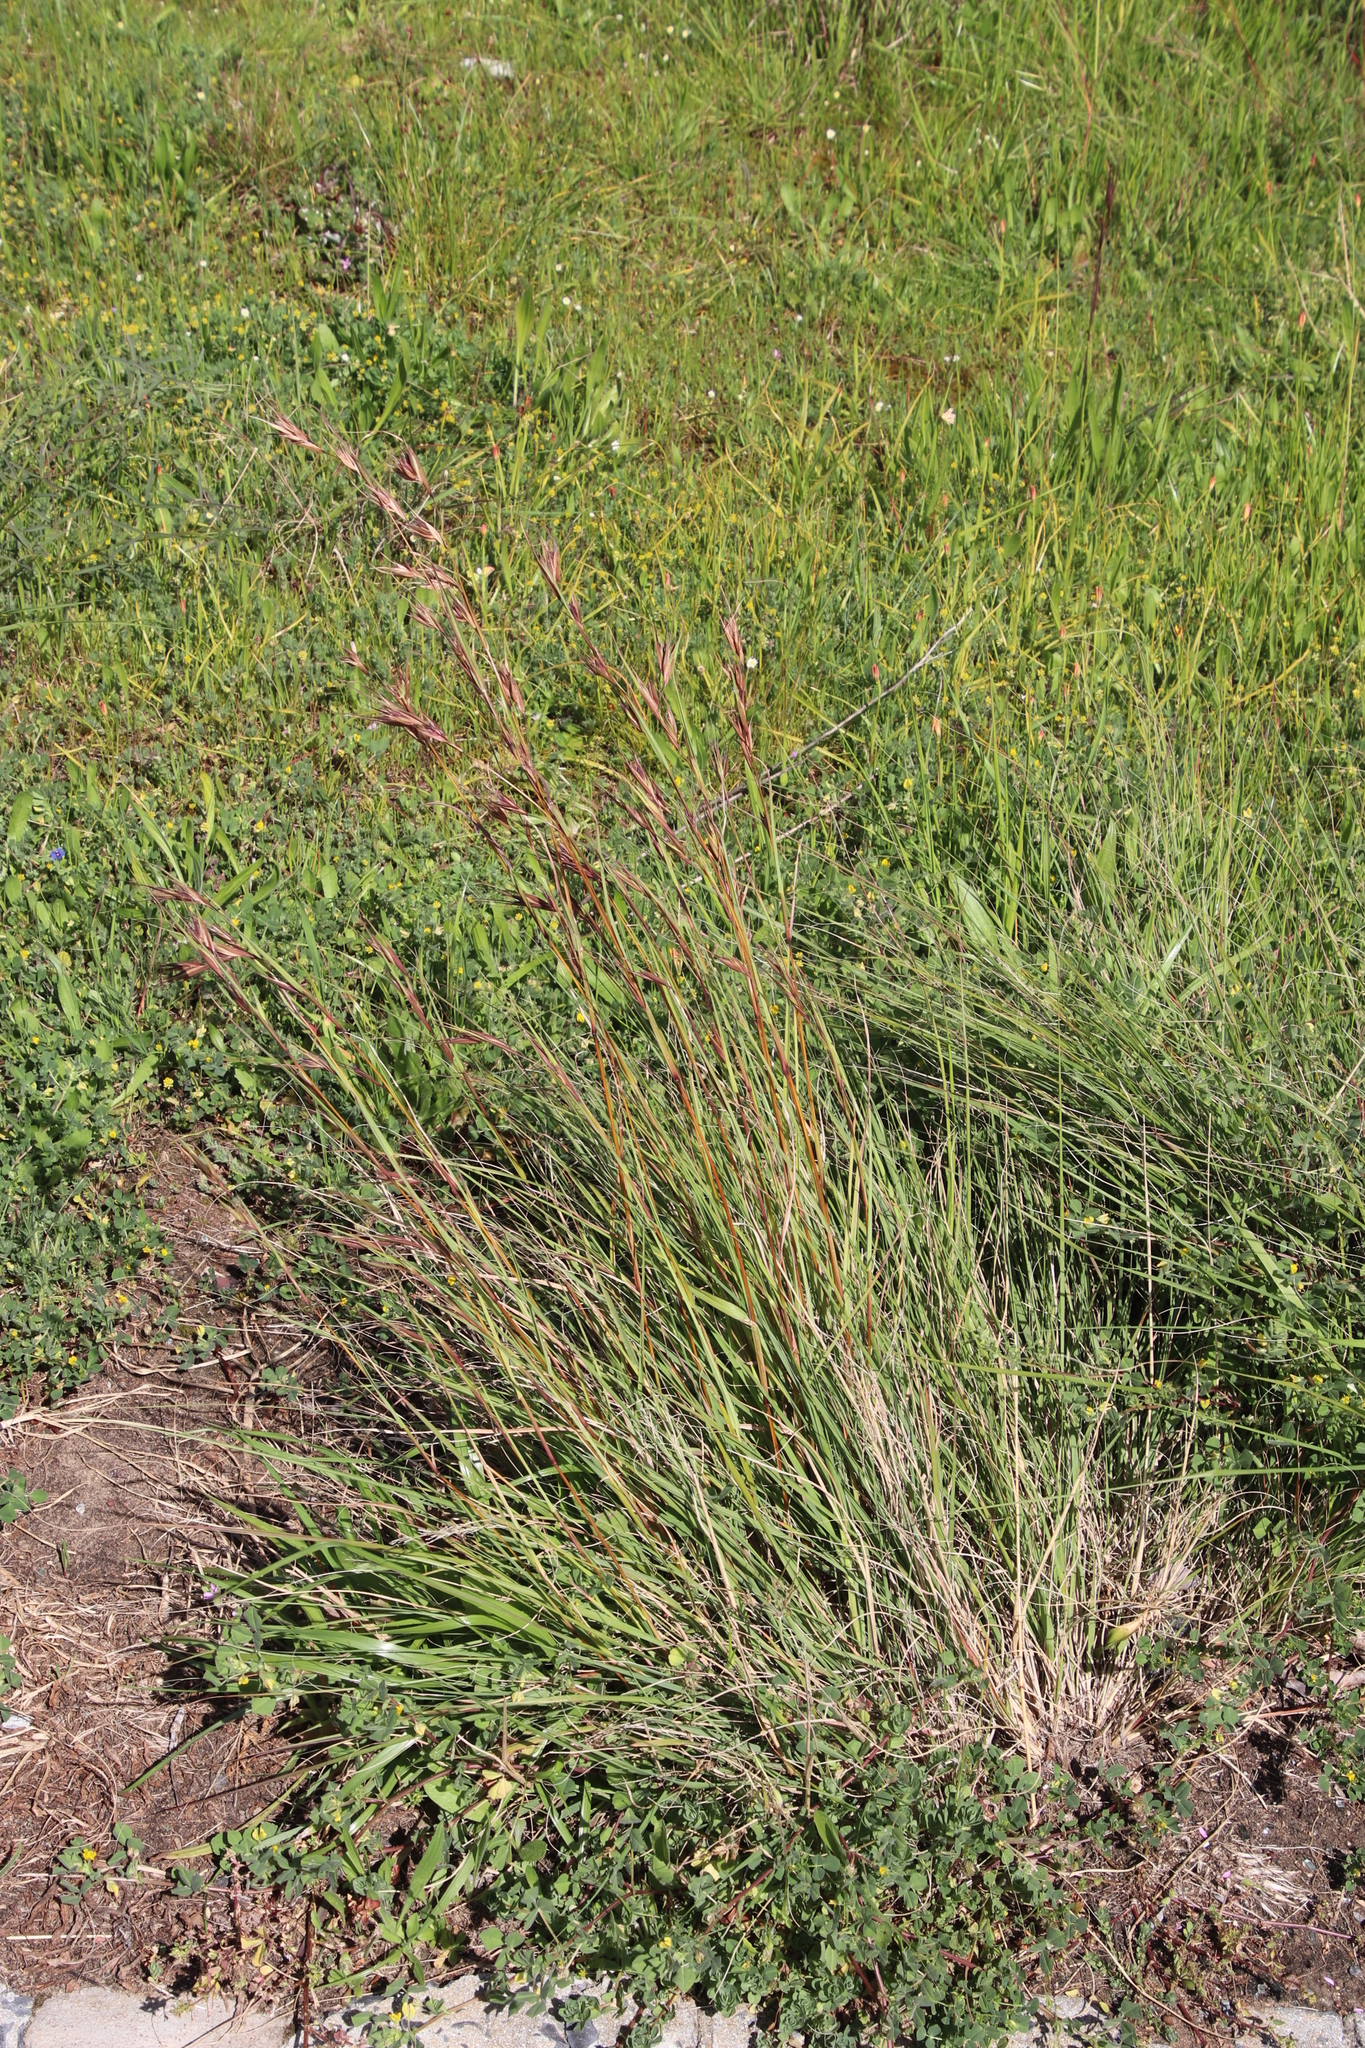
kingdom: Plantae
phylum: Tracheophyta
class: Liliopsida
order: Poales
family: Poaceae
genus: Themeda
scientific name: Themeda triandra
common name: Kangaroo grass
